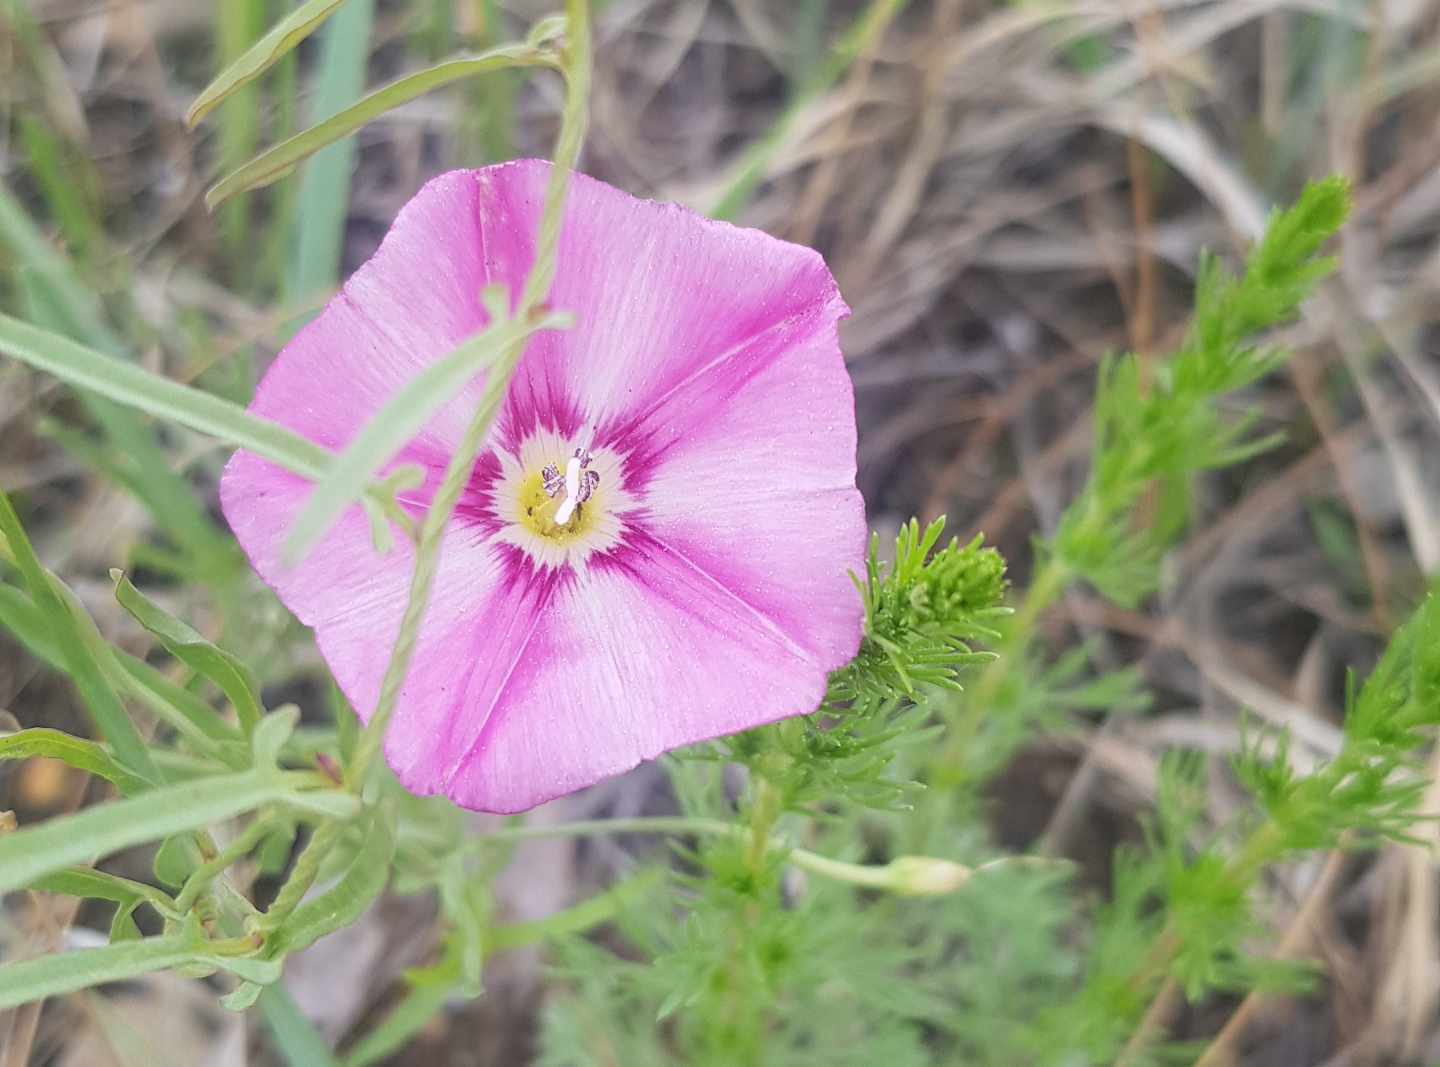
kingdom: Plantae
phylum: Tracheophyta
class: Magnoliopsida
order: Solanales
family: Convolvulaceae
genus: Convolvulus
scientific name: Convolvulus arvensis
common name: Field bindweed
